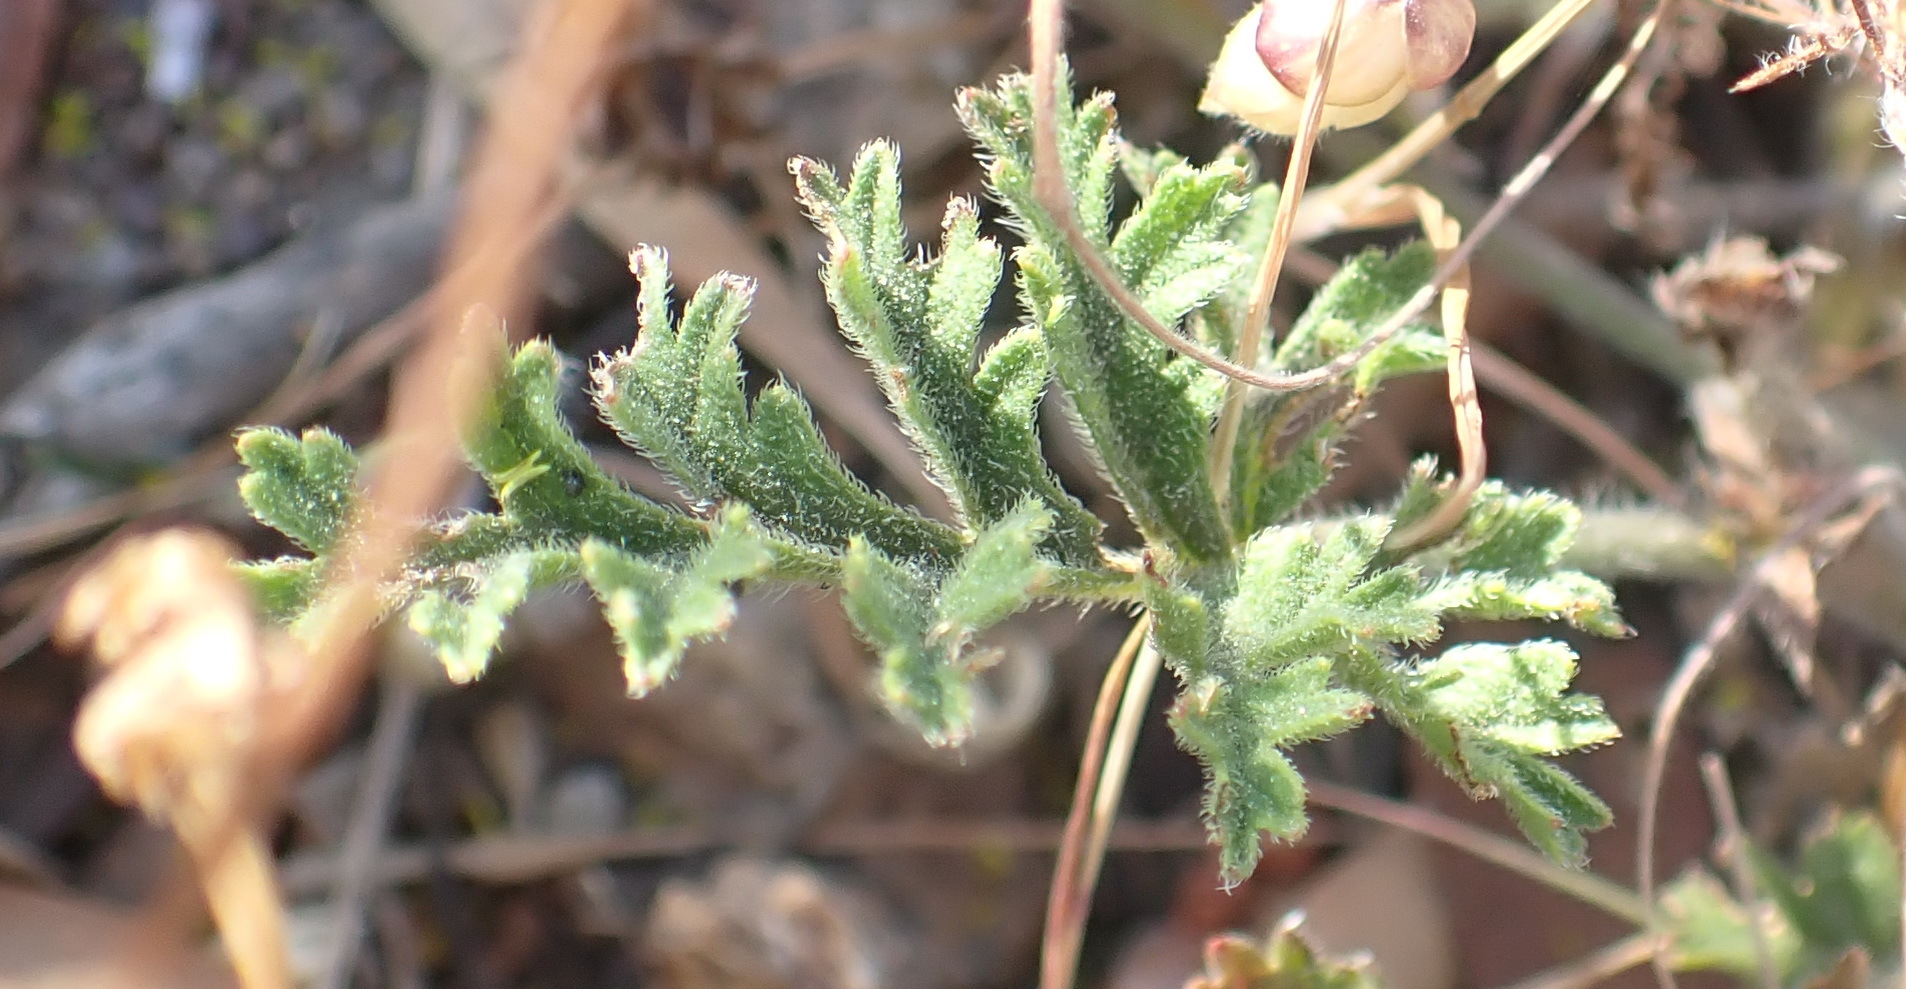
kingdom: Plantae
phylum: Tracheophyta
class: Magnoliopsida
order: Geraniales
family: Geraniaceae
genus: Pelargonium
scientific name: Pelargonium myrrhifolium
